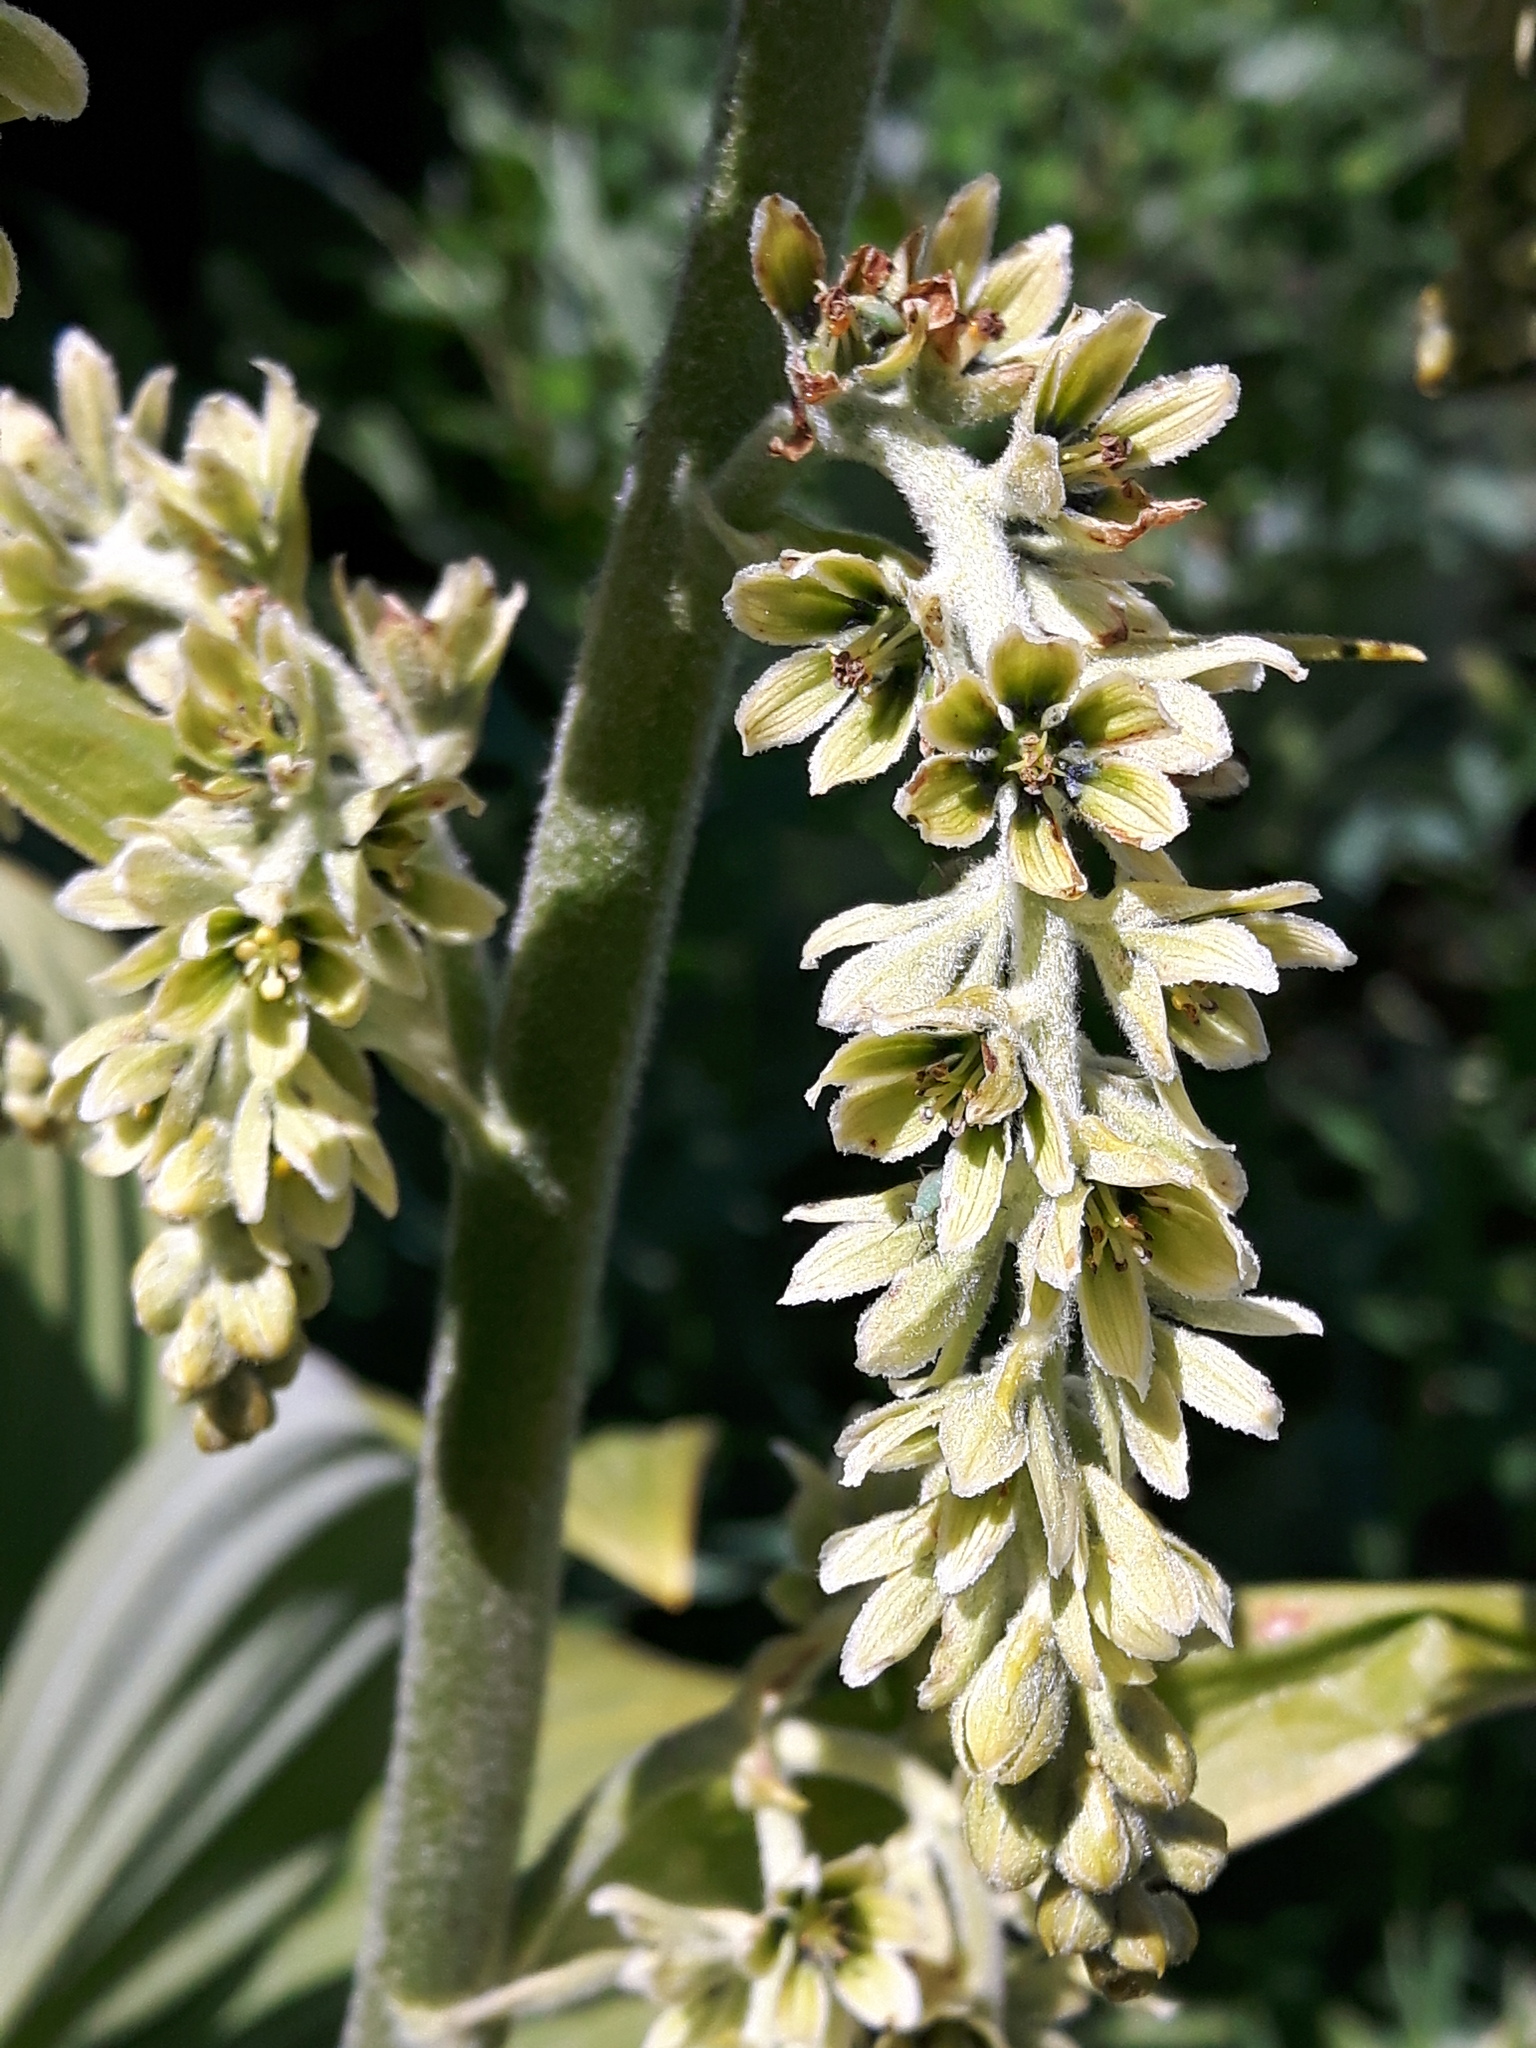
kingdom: Plantae
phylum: Tracheophyta
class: Liliopsida
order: Liliales
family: Melanthiaceae
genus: Veratrum
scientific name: Veratrum viride
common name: American false hellebore
